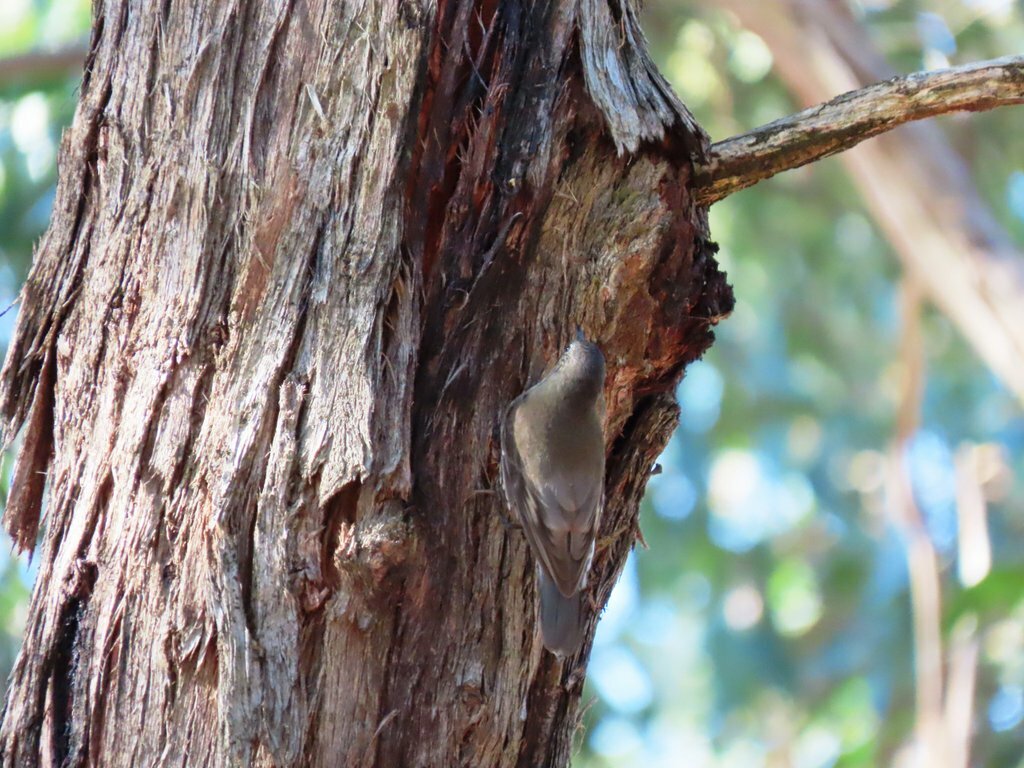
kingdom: Animalia
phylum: Chordata
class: Aves
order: Passeriformes
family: Climacteridae
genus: Cormobates
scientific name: Cormobates leucophaea
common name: White-throated treecreeper
